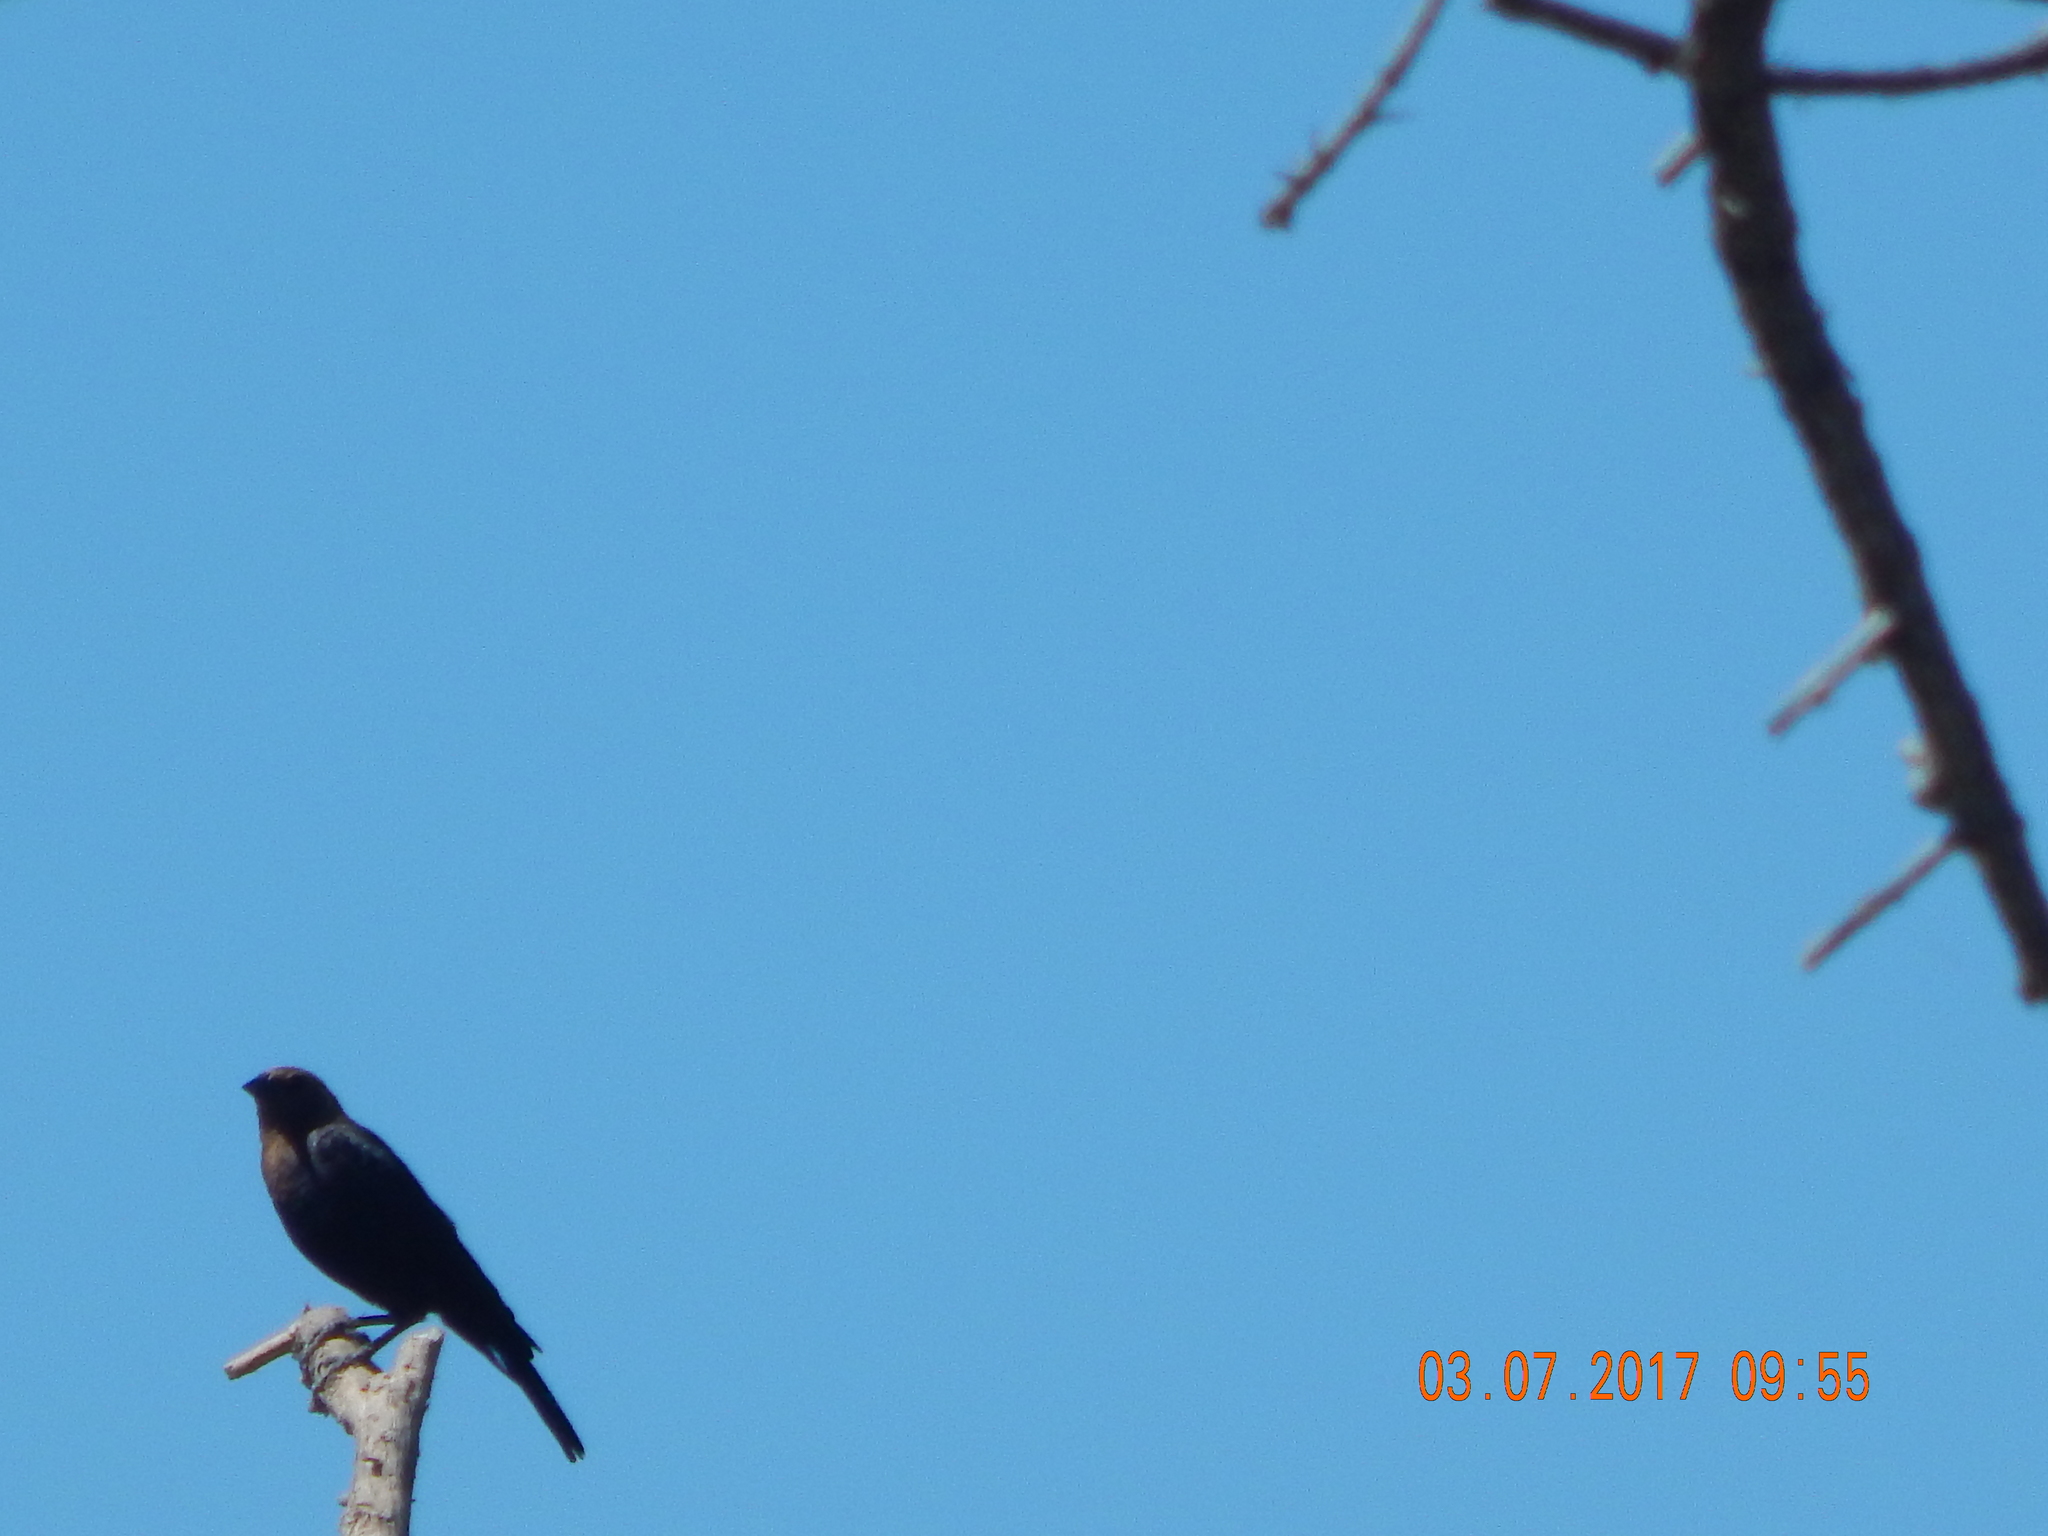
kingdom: Animalia
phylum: Chordata
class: Aves
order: Passeriformes
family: Icteridae
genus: Molothrus
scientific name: Molothrus ater
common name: Brown-headed cowbird
